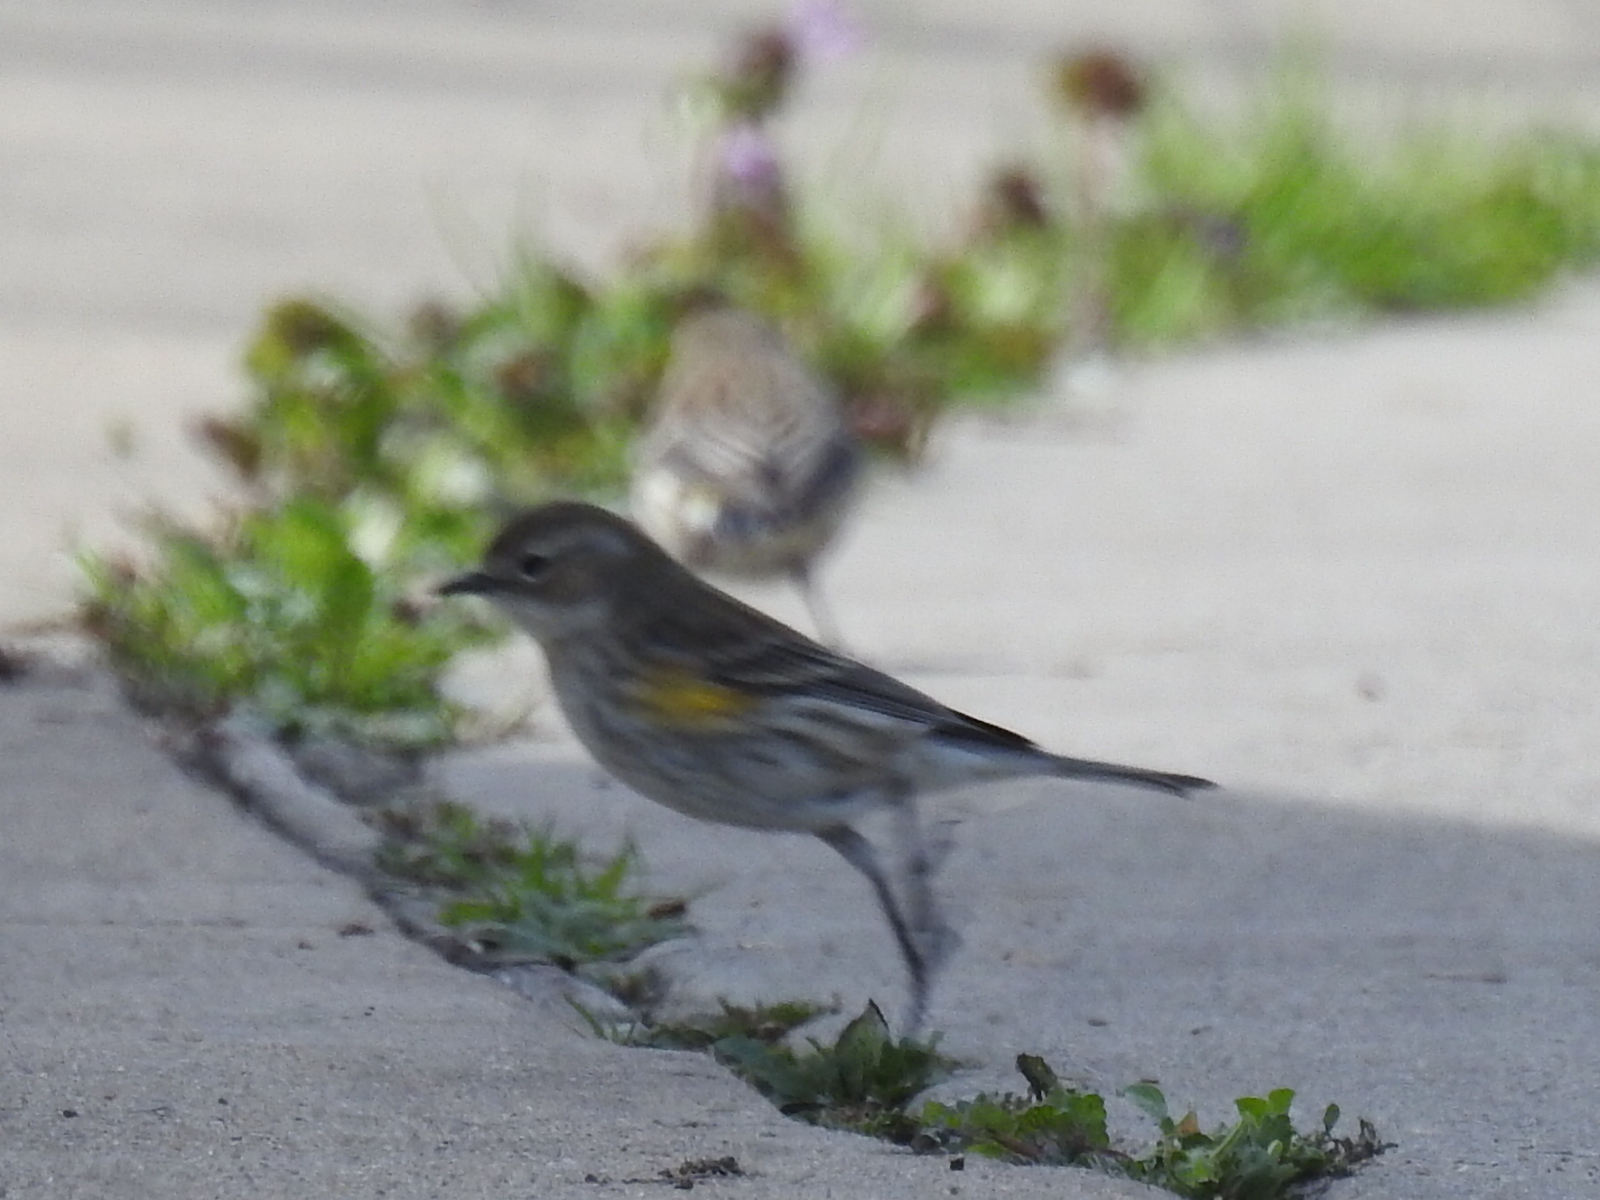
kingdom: Animalia
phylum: Chordata
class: Aves
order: Passeriformes
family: Parulidae
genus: Setophaga
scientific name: Setophaga coronata
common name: Myrtle warbler
